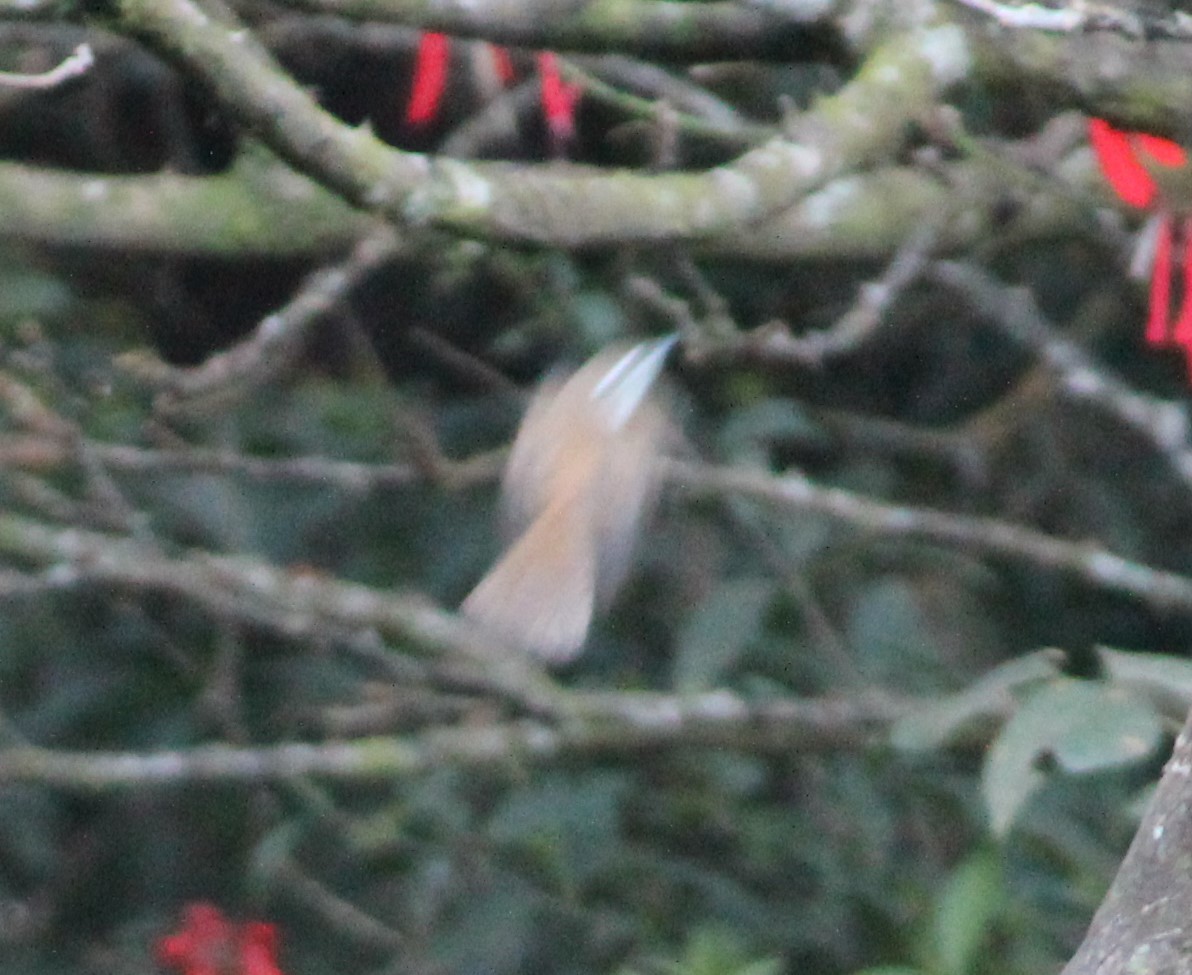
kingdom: Animalia
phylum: Chordata
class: Aves
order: Passeriformes
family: Troglodytidae
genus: Cantorchilus
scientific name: Cantorchilus modestus
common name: Cabanis's wren
